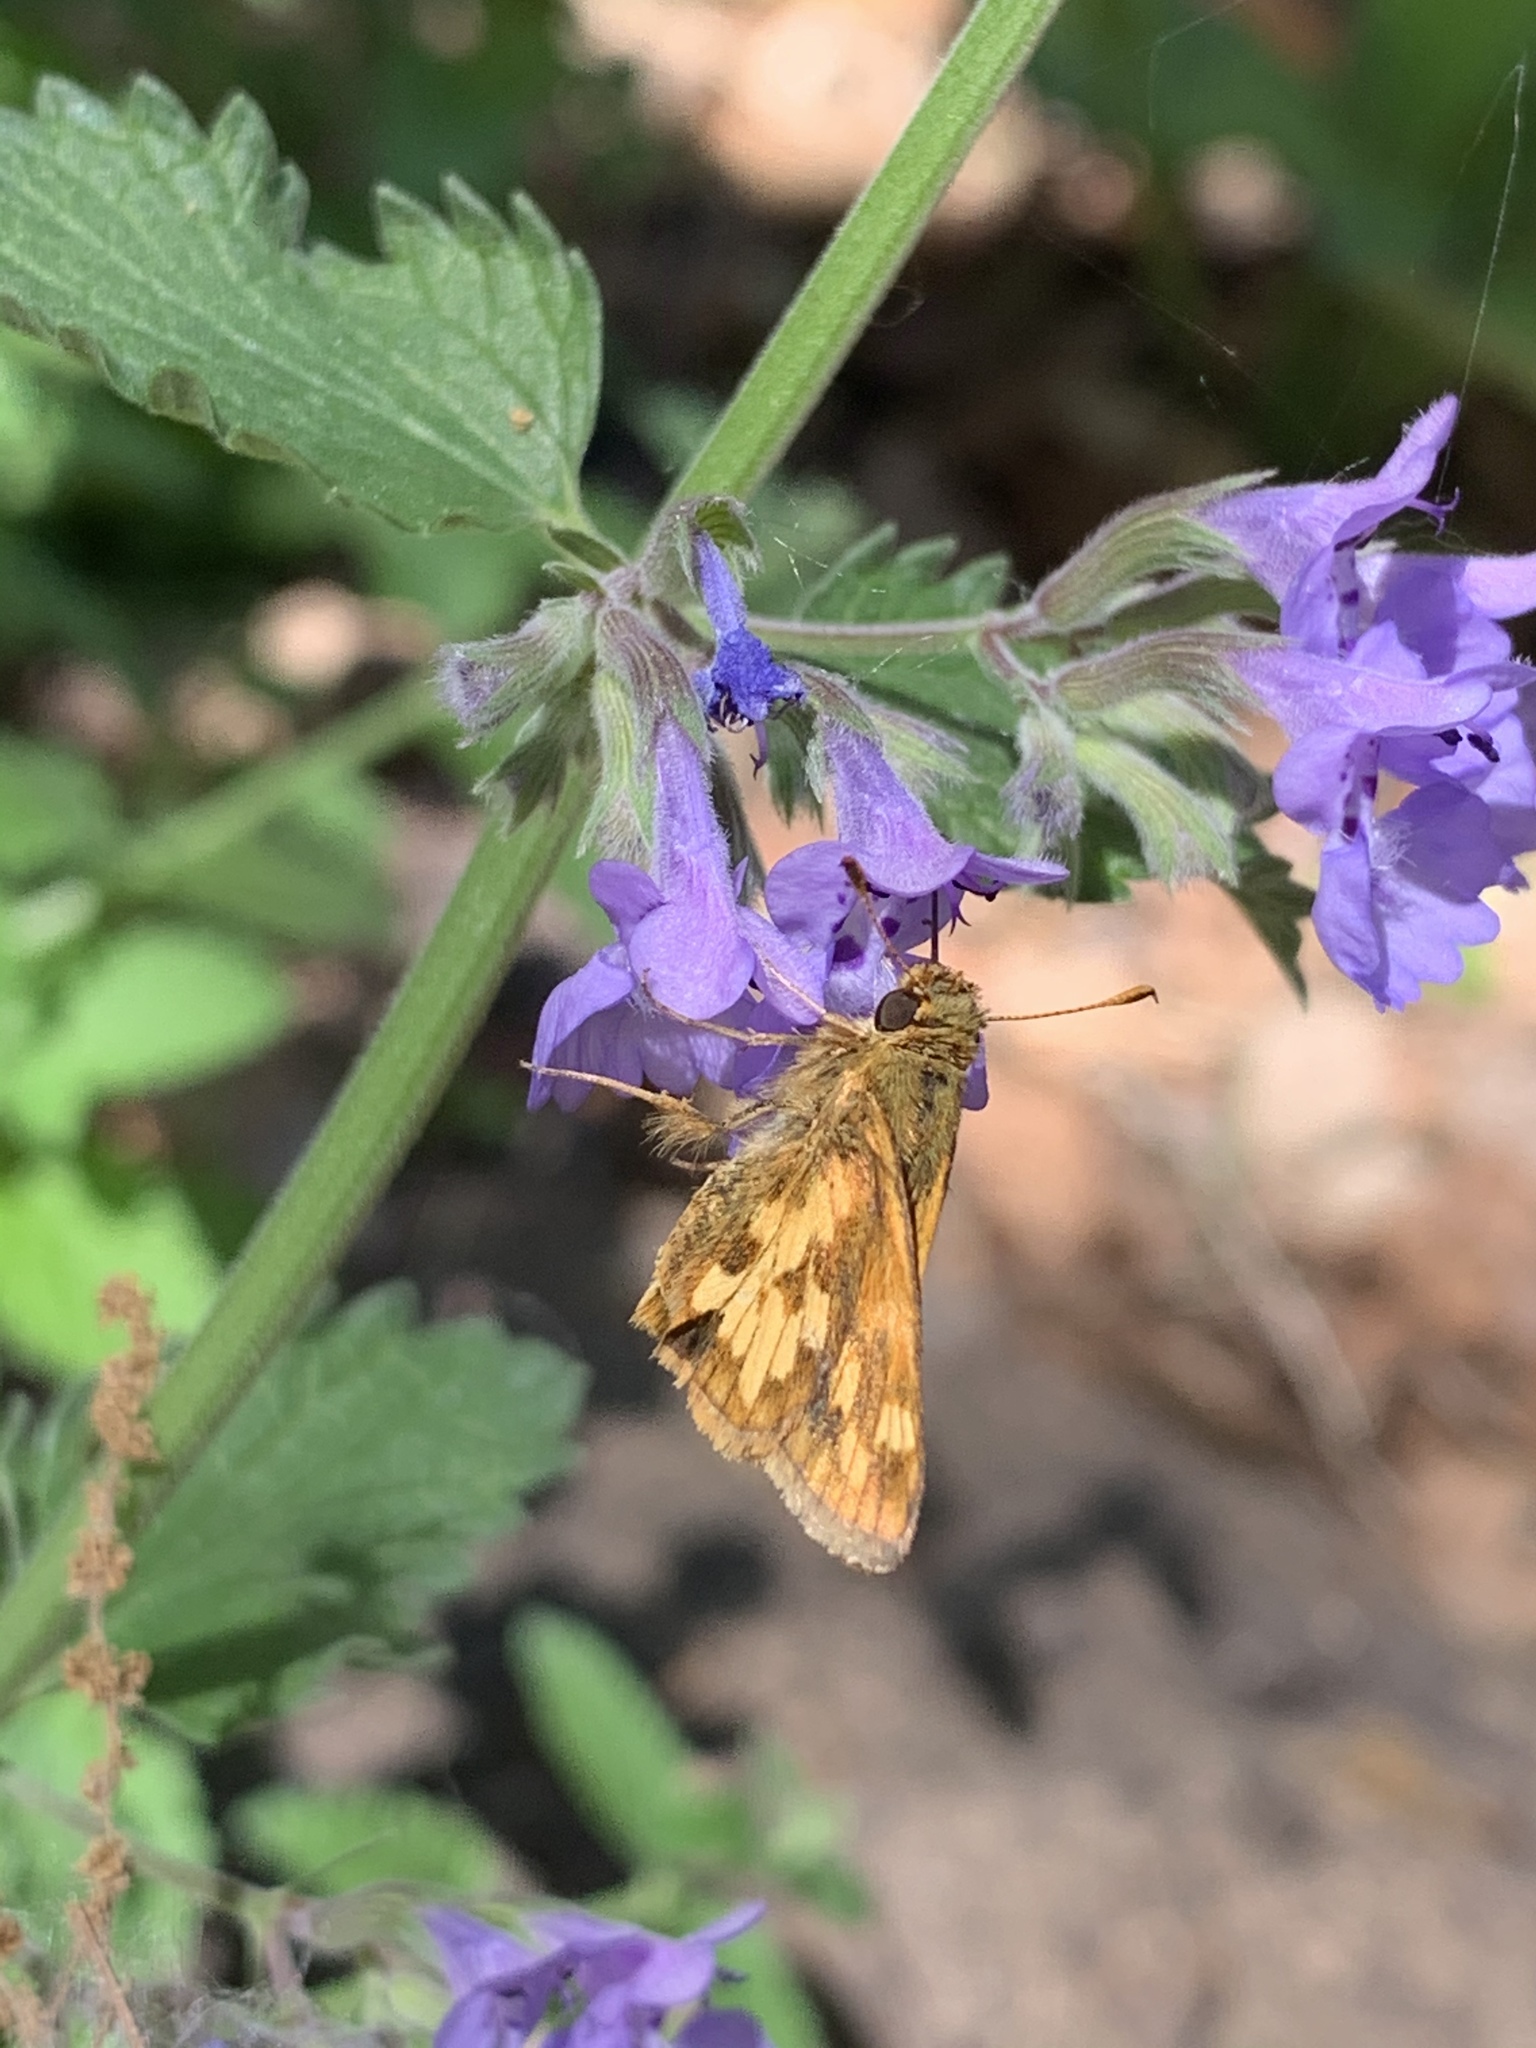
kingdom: Animalia
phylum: Arthropoda
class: Insecta
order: Lepidoptera
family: Hesperiidae
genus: Polites
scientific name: Polites coras
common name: Peck's skipper
